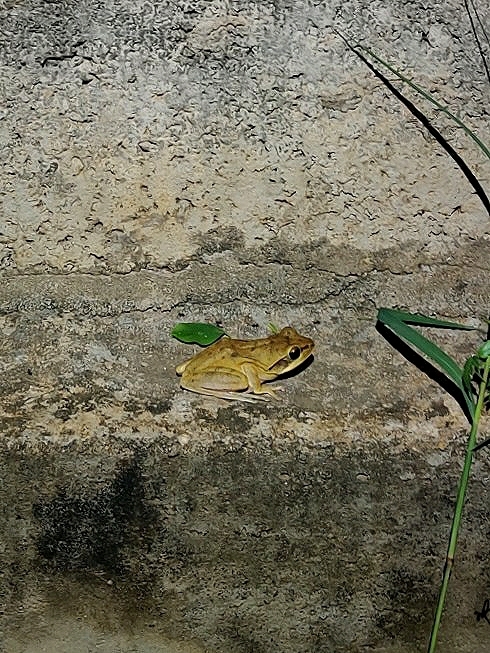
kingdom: Animalia
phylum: Chordata
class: Amphibia
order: Anura
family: Rhacophoridae
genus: Polypedates
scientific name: Polypedates maculatus
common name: Himalayan tree frog
